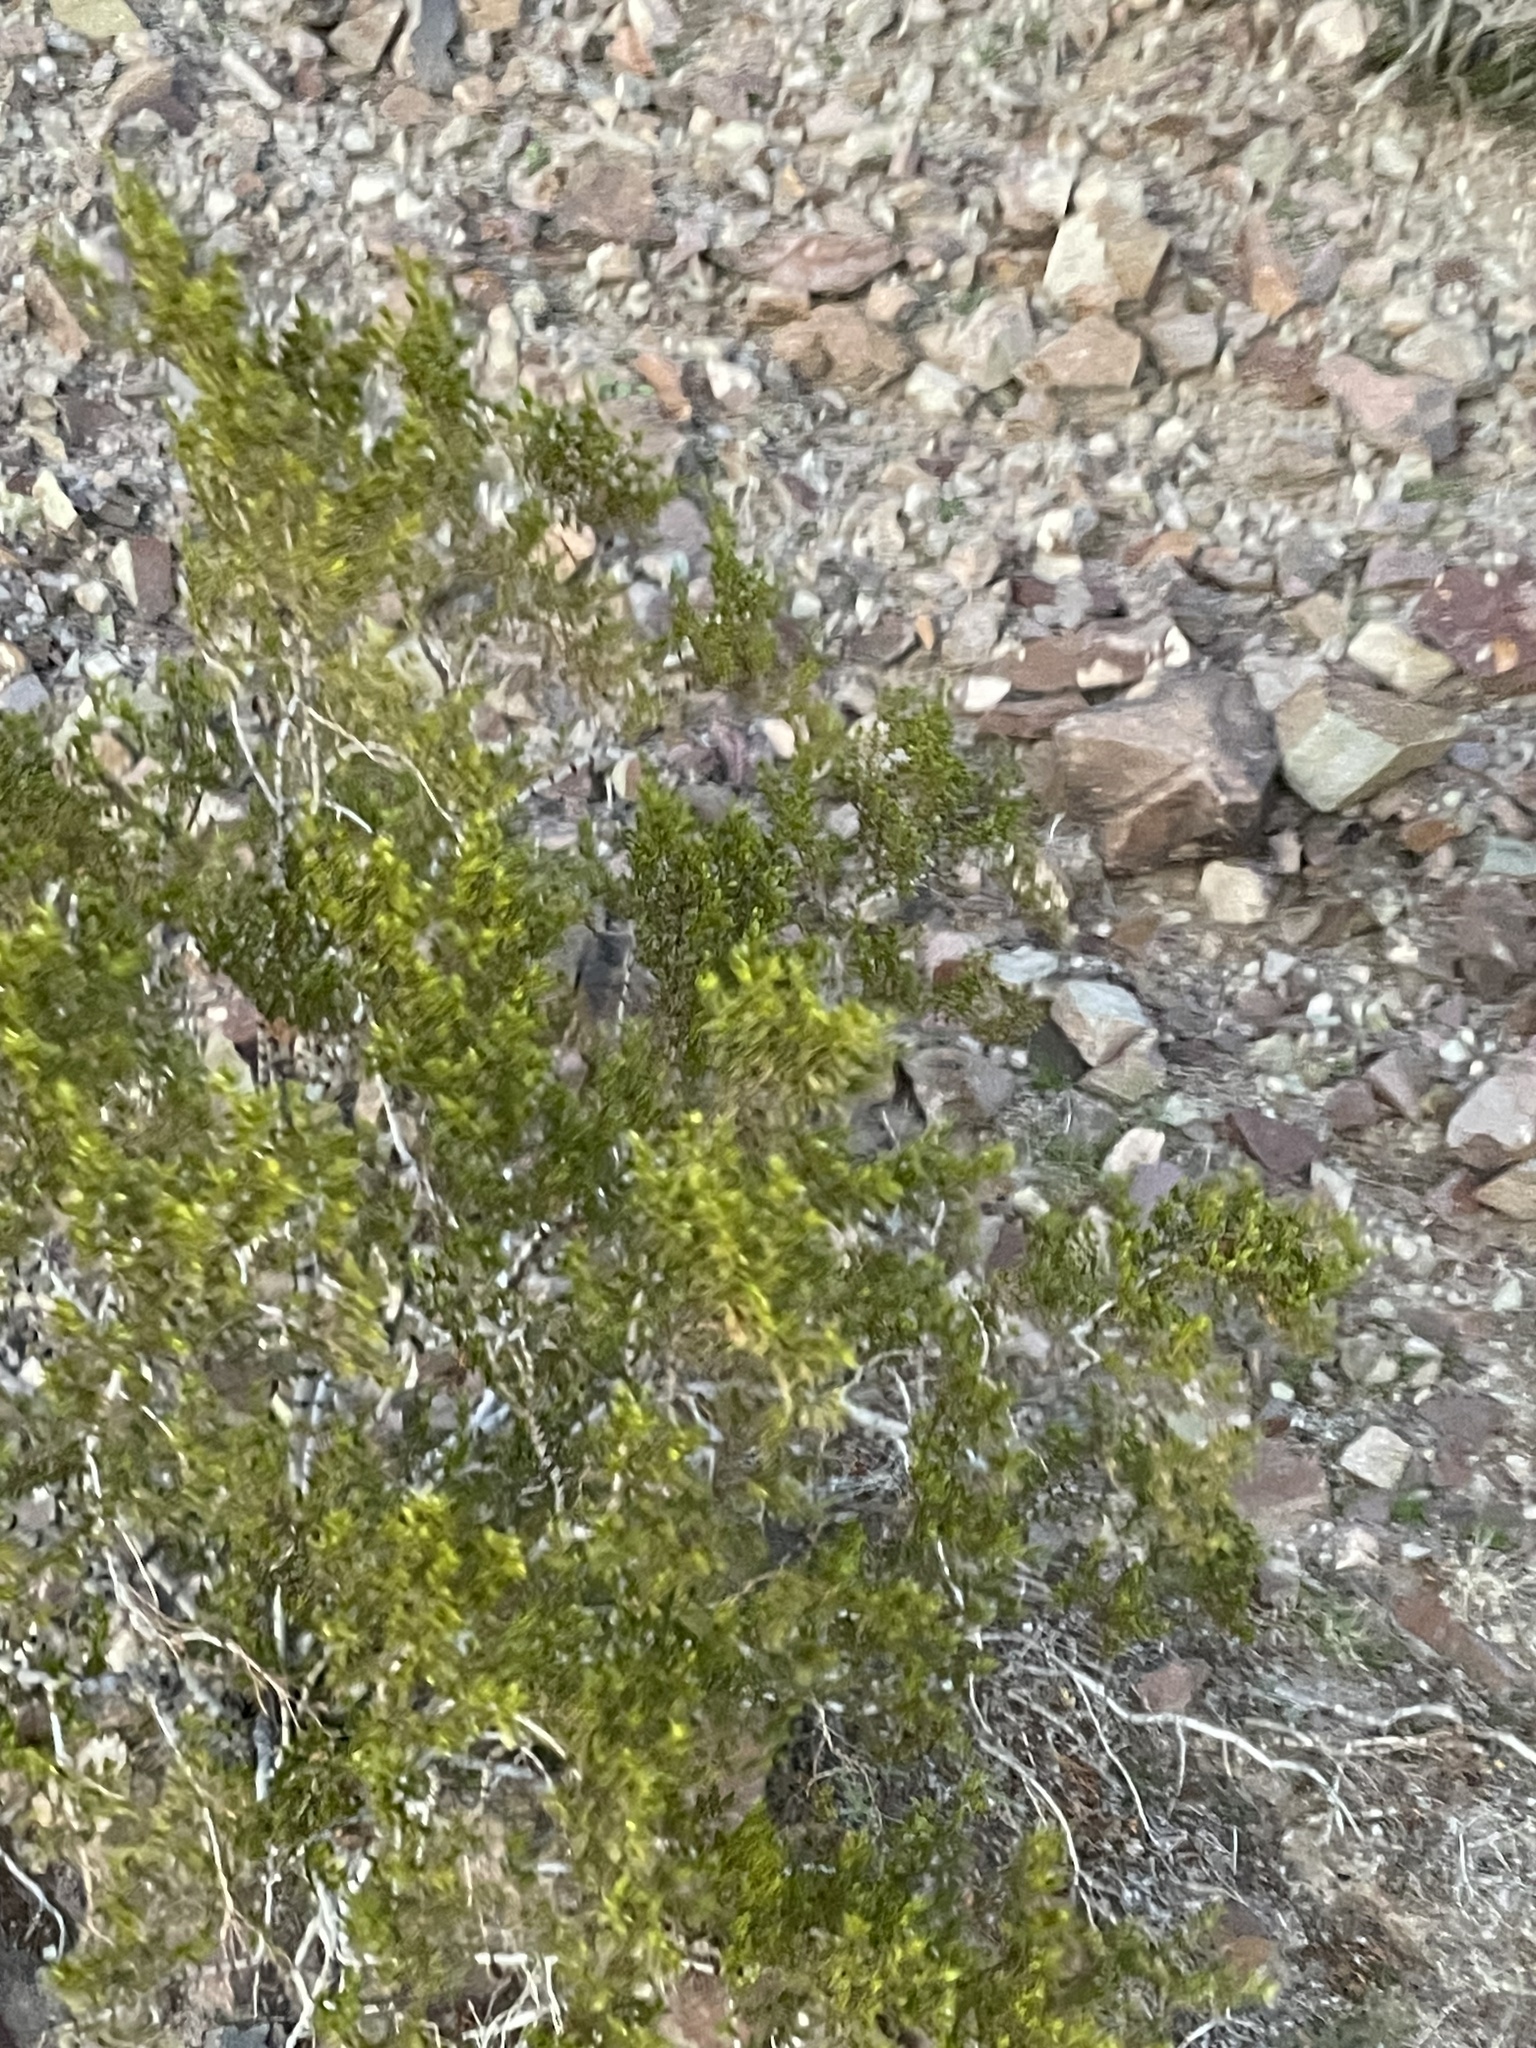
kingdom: Plantae
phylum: Tracheophyta
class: Magnoliopsida
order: Zygophyllales
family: Zygophyllaceae
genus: Larrea
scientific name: Larrea tridentata
